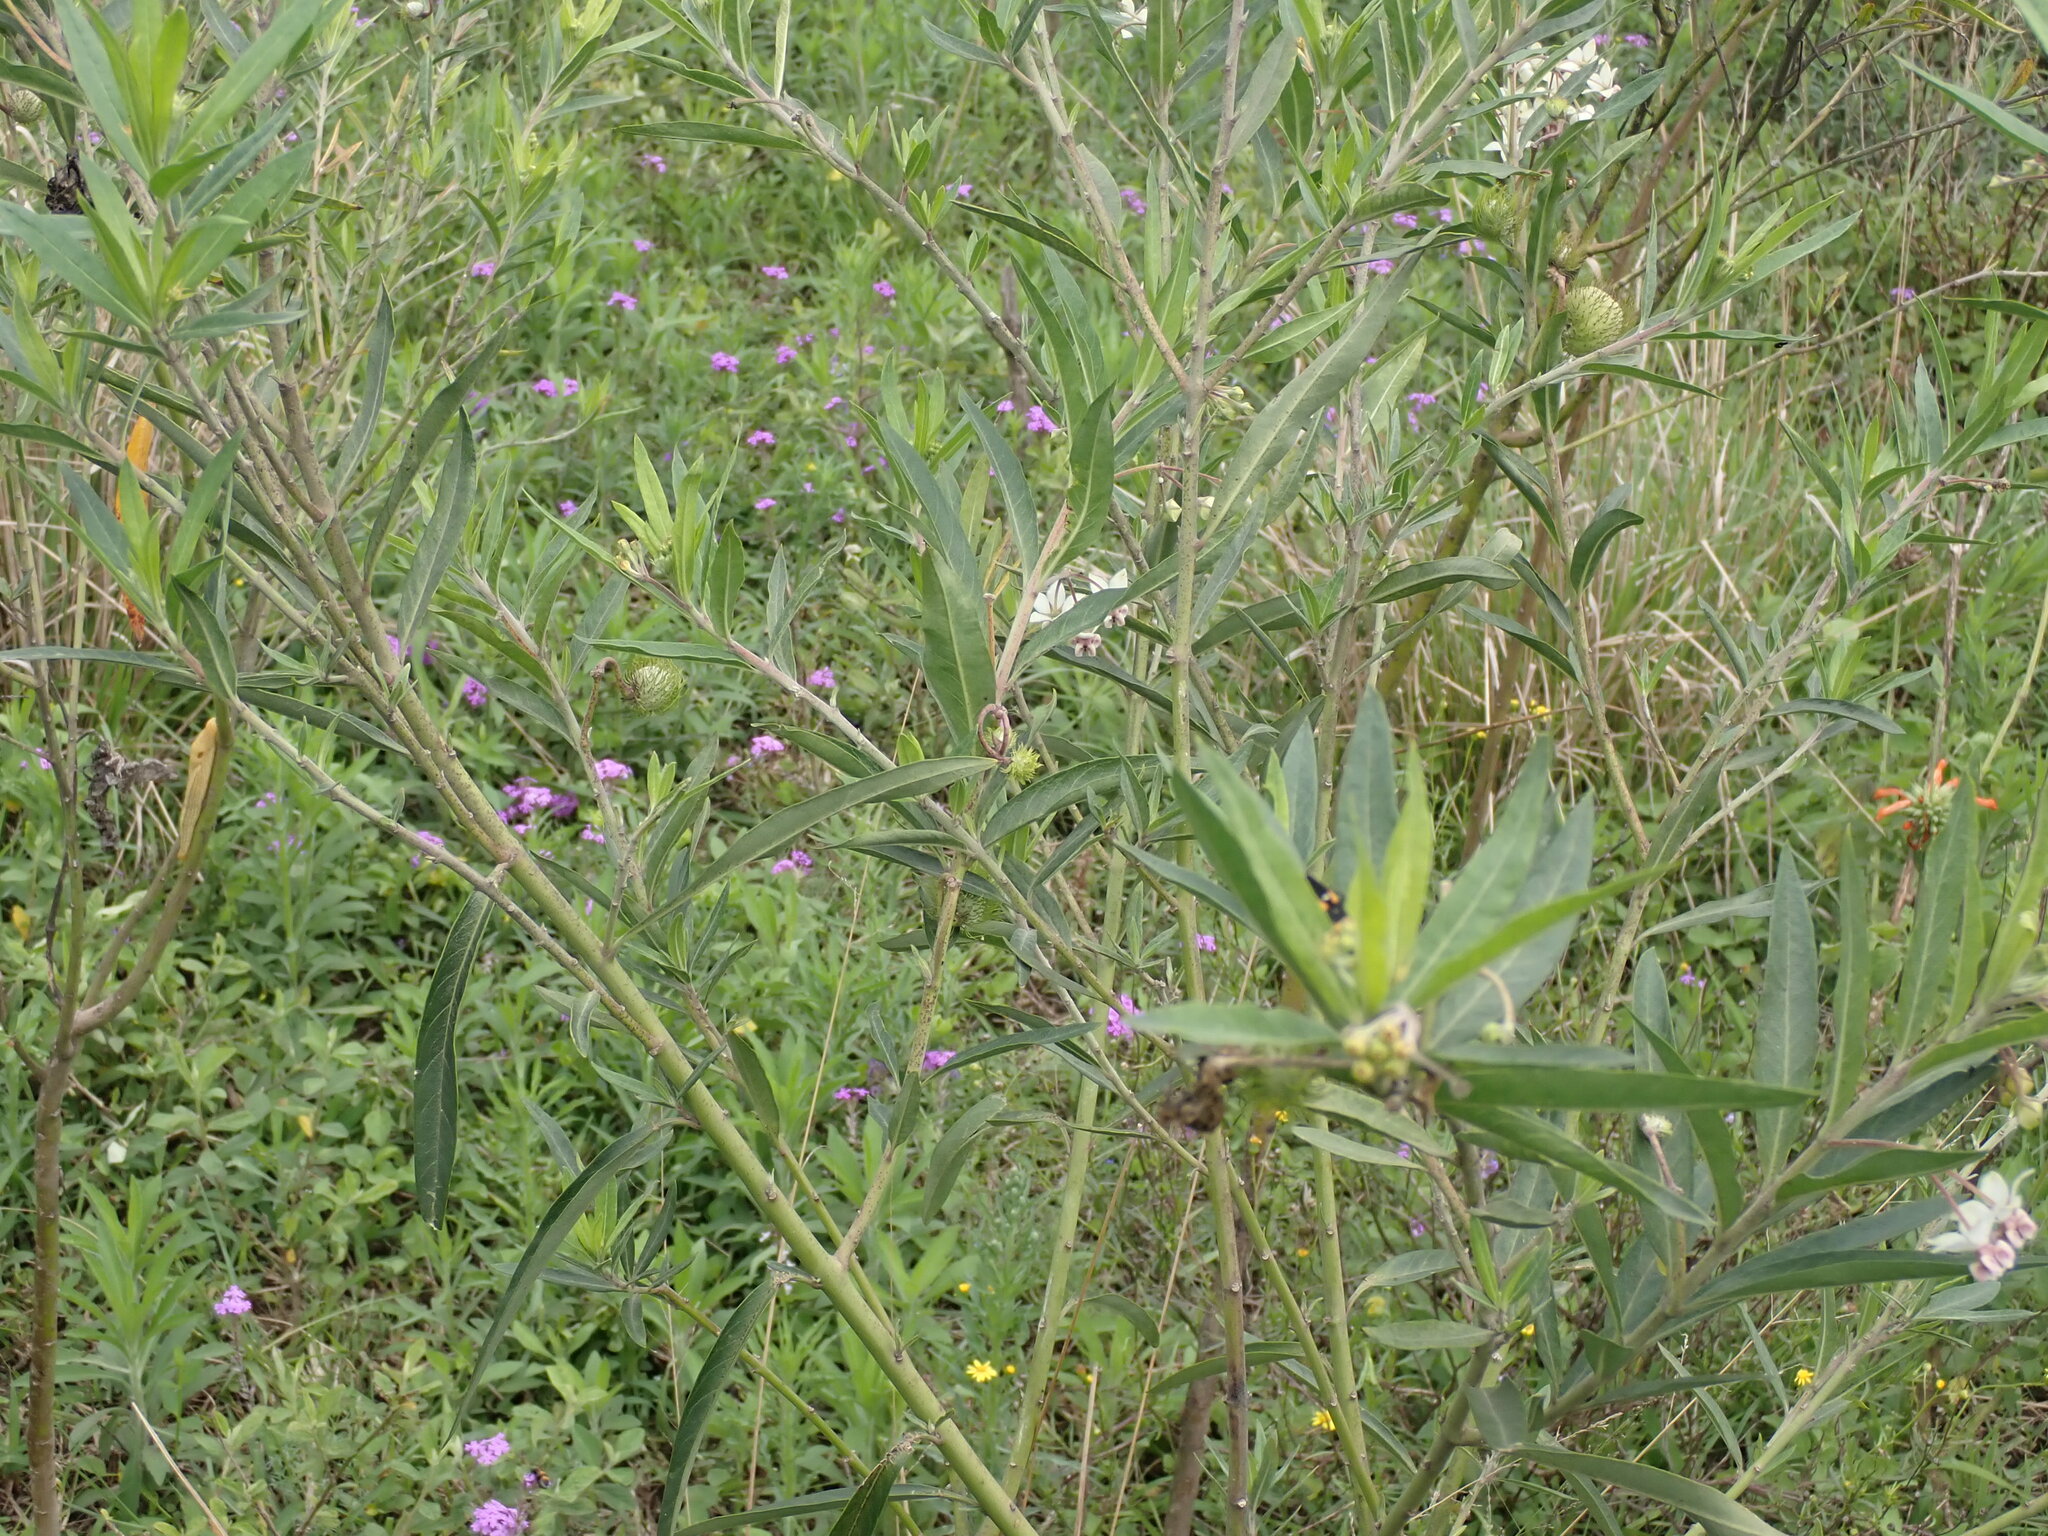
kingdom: Plantae
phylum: Tracheophyta
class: Magnoliopsida
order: Gentianales
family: Apocynaceae
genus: Gomphocarpus
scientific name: Gomphocarpus physocarpus
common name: Balloon cotton bush
